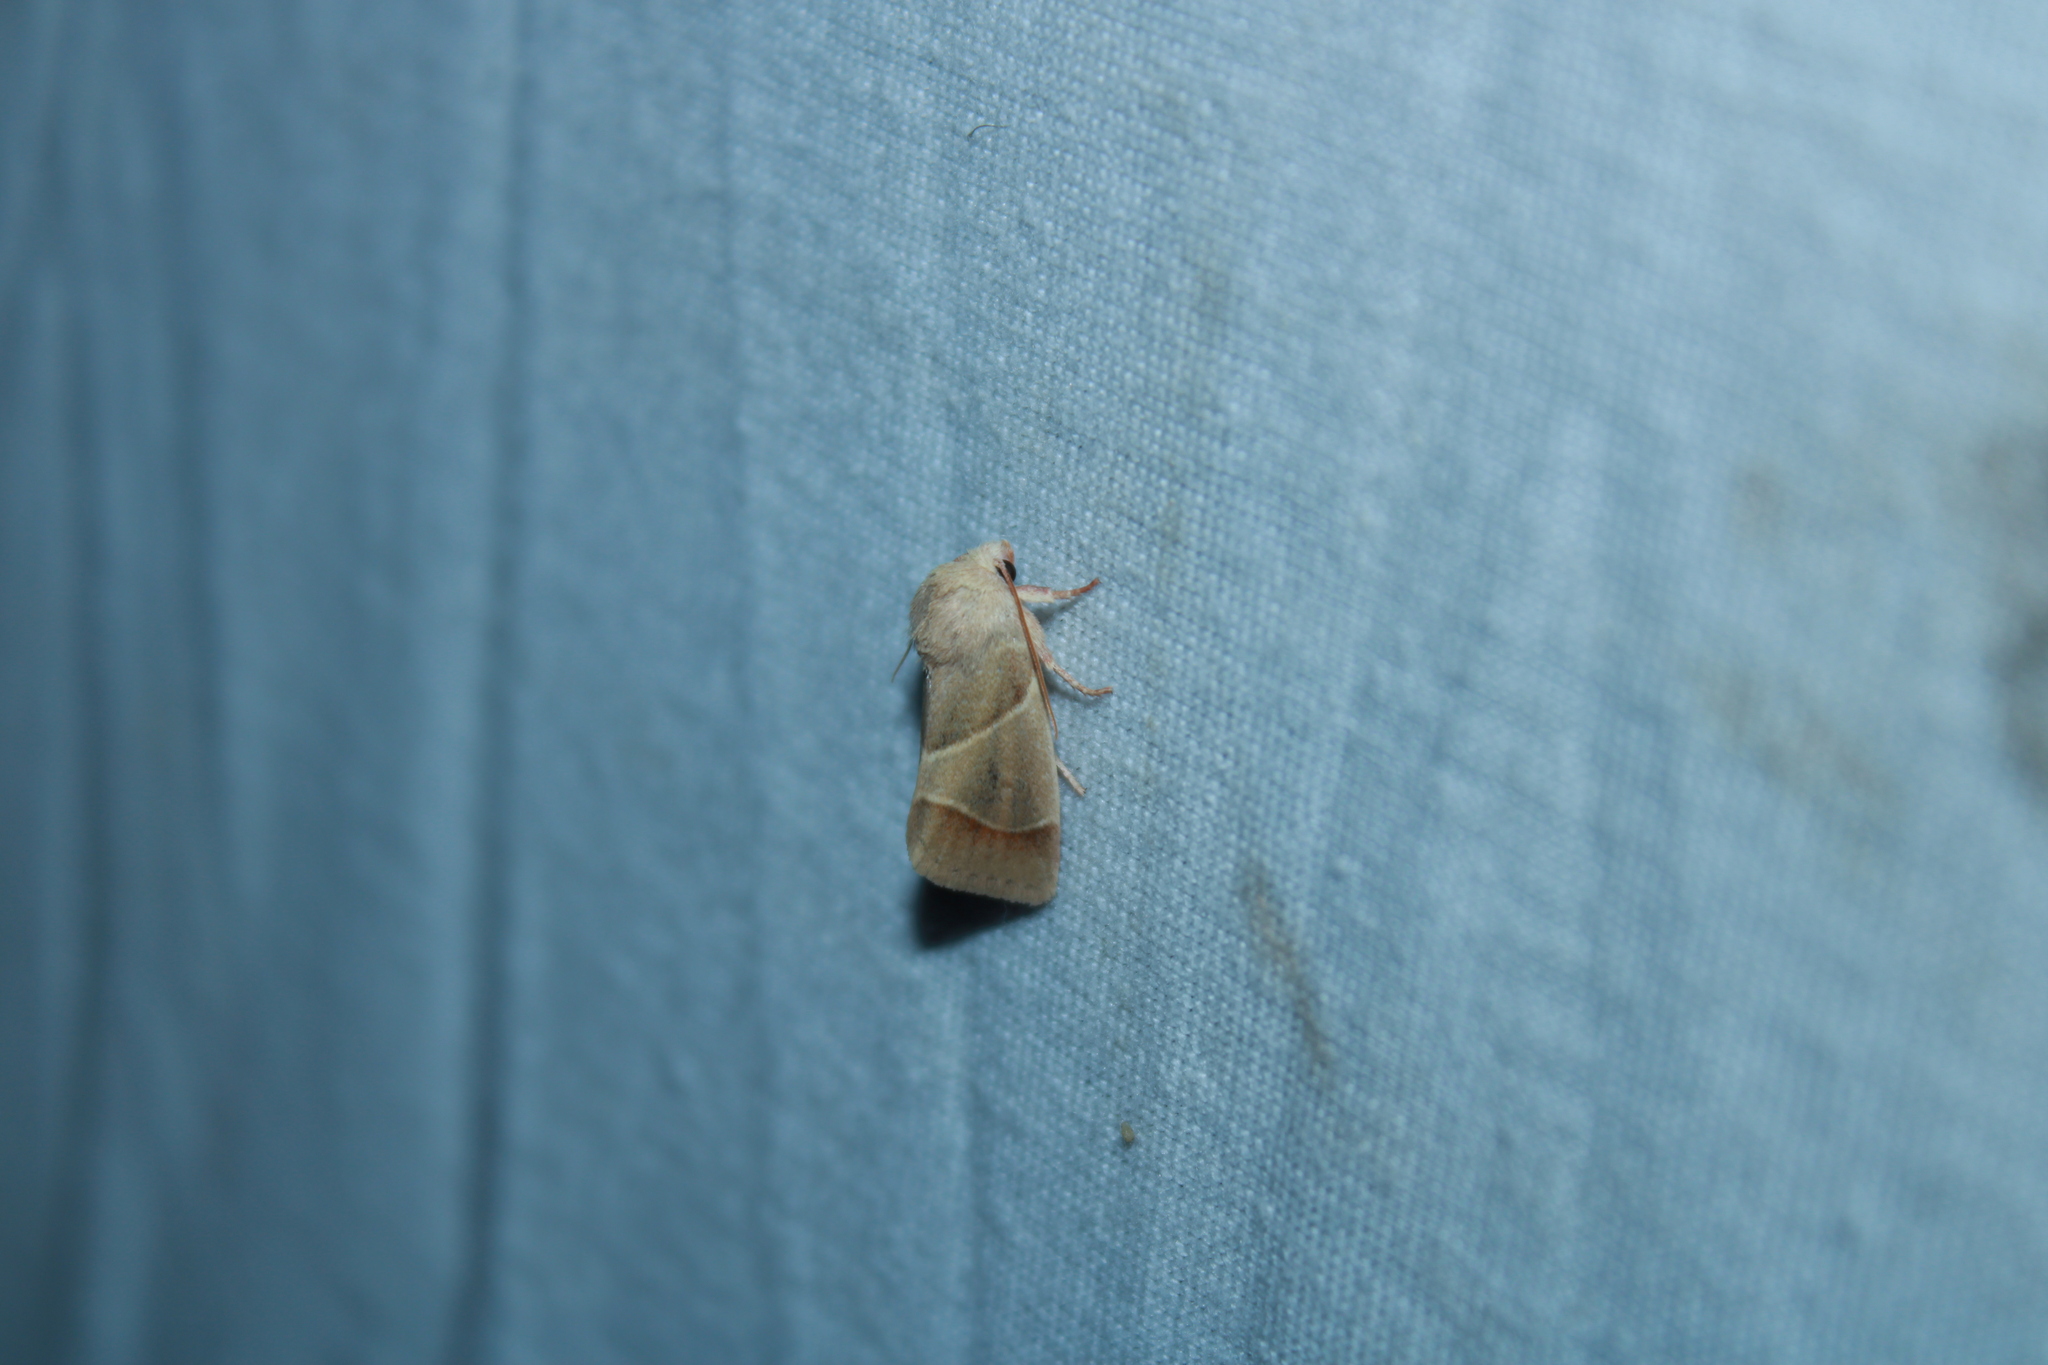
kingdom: Animalia
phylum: Arthropoda
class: Insecta
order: Lepidoptera
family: Noctuidae
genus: Cosmia
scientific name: Cosmia calami
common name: American dun-bar moth
